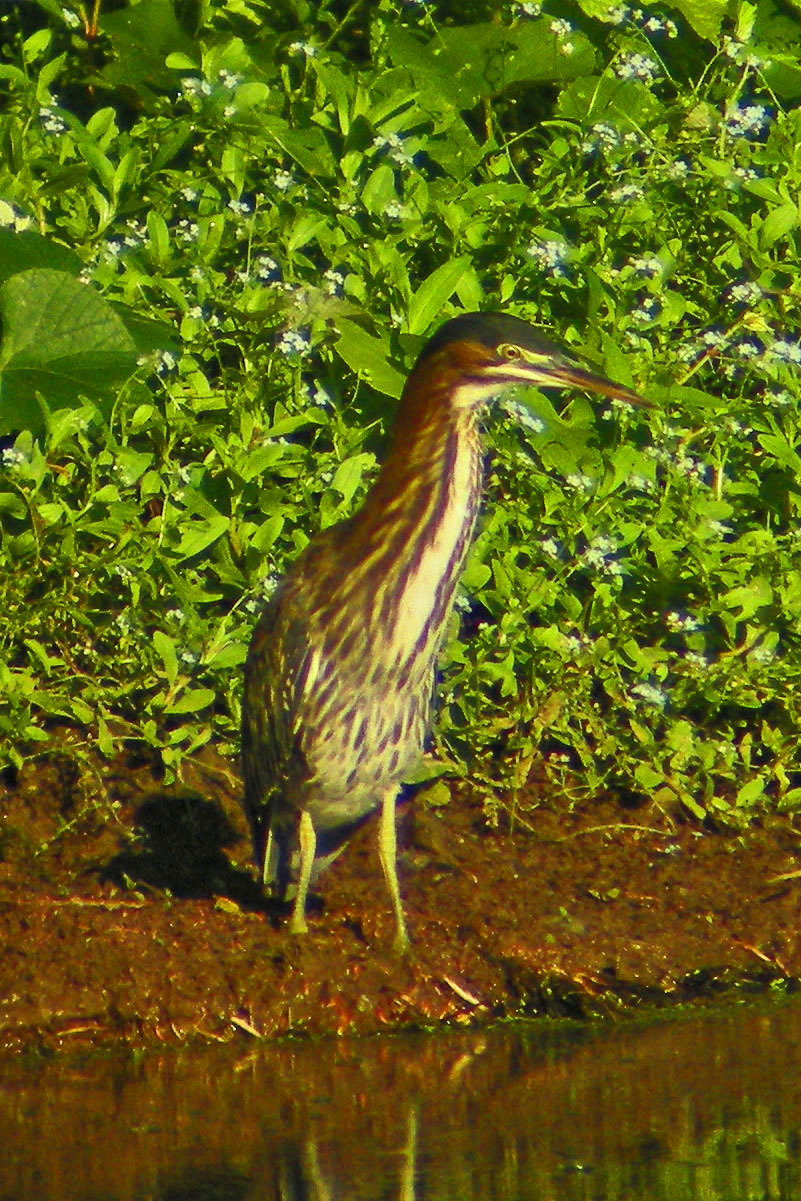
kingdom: Animalia
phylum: Chordata
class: Aves
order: Pelecaniformes
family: Ardeidae
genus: Butorides
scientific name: Butorides virescens
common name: Green heron
